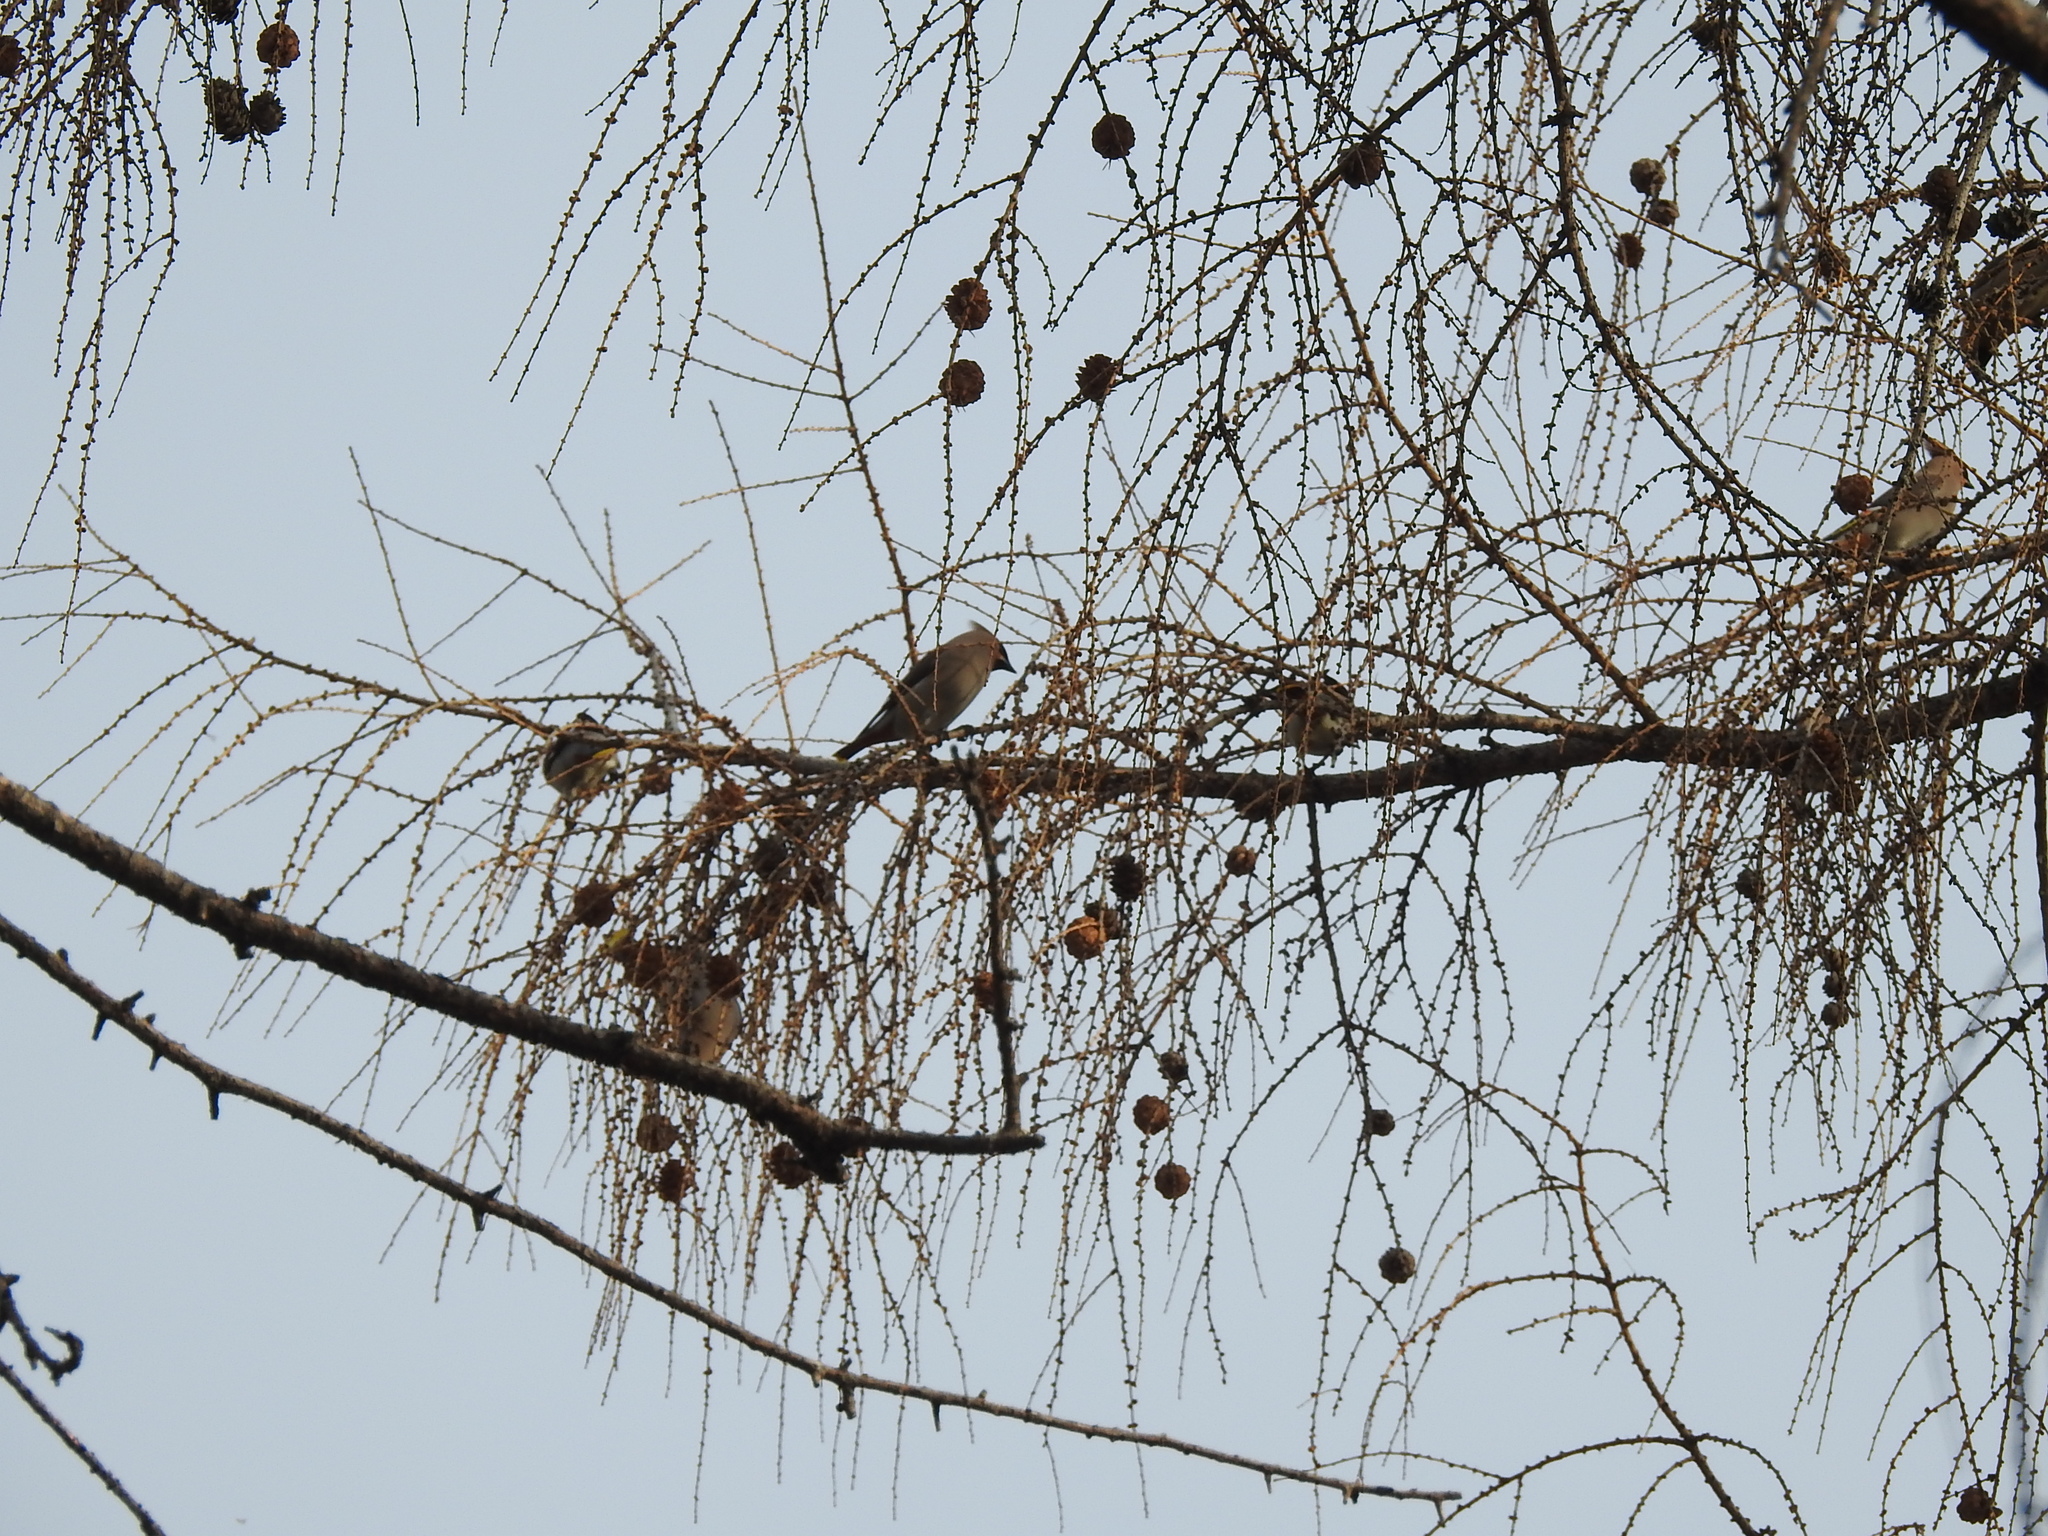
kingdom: Animalia
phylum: Chordata
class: Aves
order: Passeriformes
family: Bombycillidae
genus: Bombycilla
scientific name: Bombycilla garrulus
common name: Bohemian waxwing
